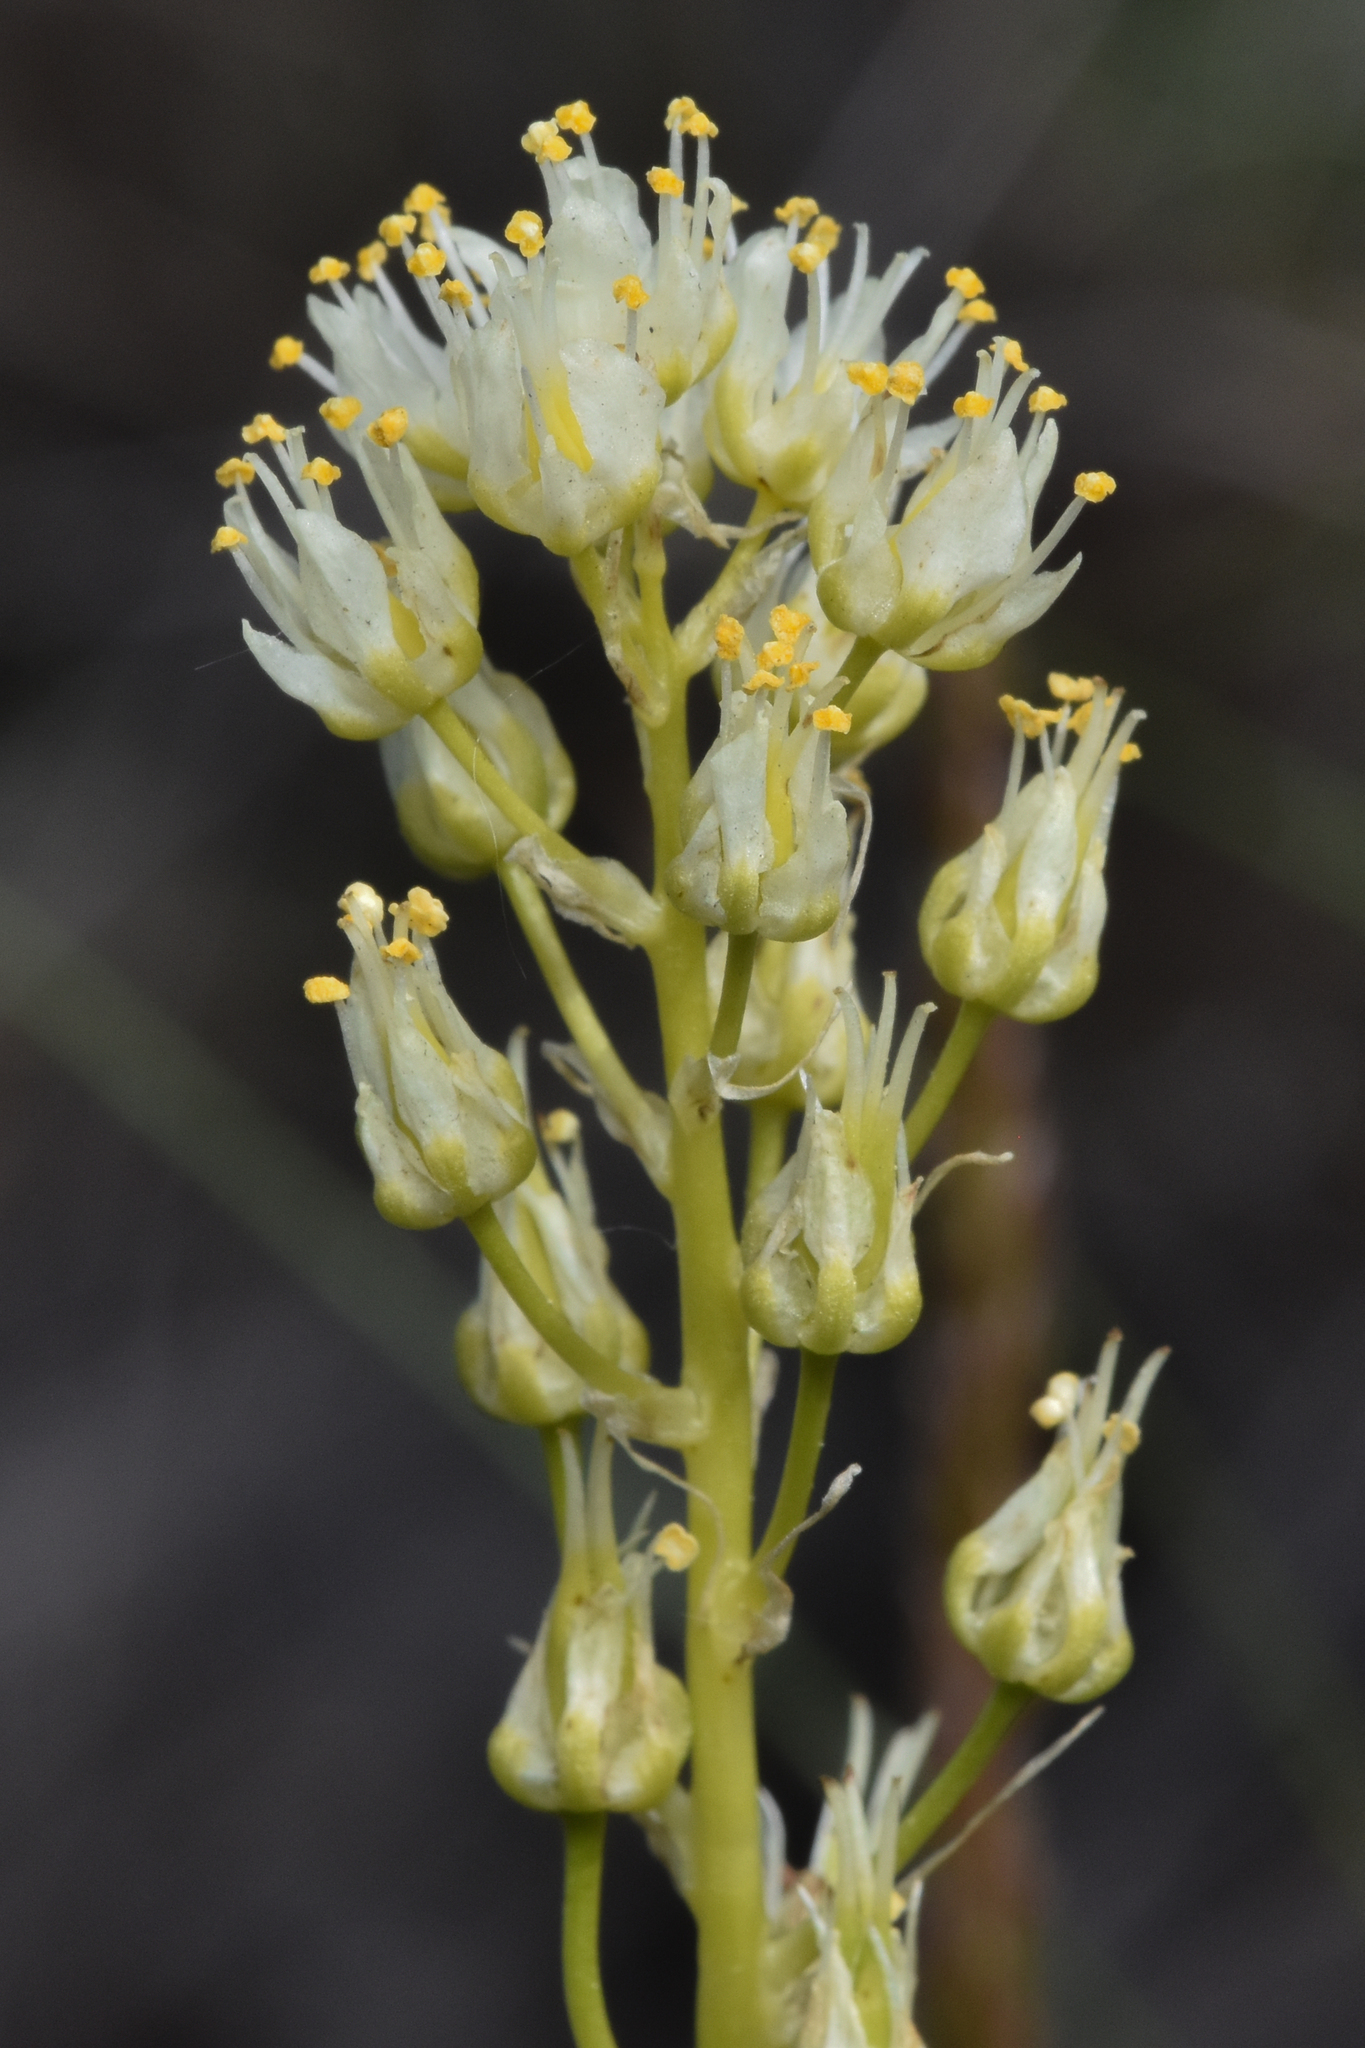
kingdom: Plantae
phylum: Tracheophyta
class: Liliopsida
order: Liliales
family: Melanthiaceae
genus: Toxicoscordion
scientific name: Toxicoscordion venenosum
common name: Meadow death camas
